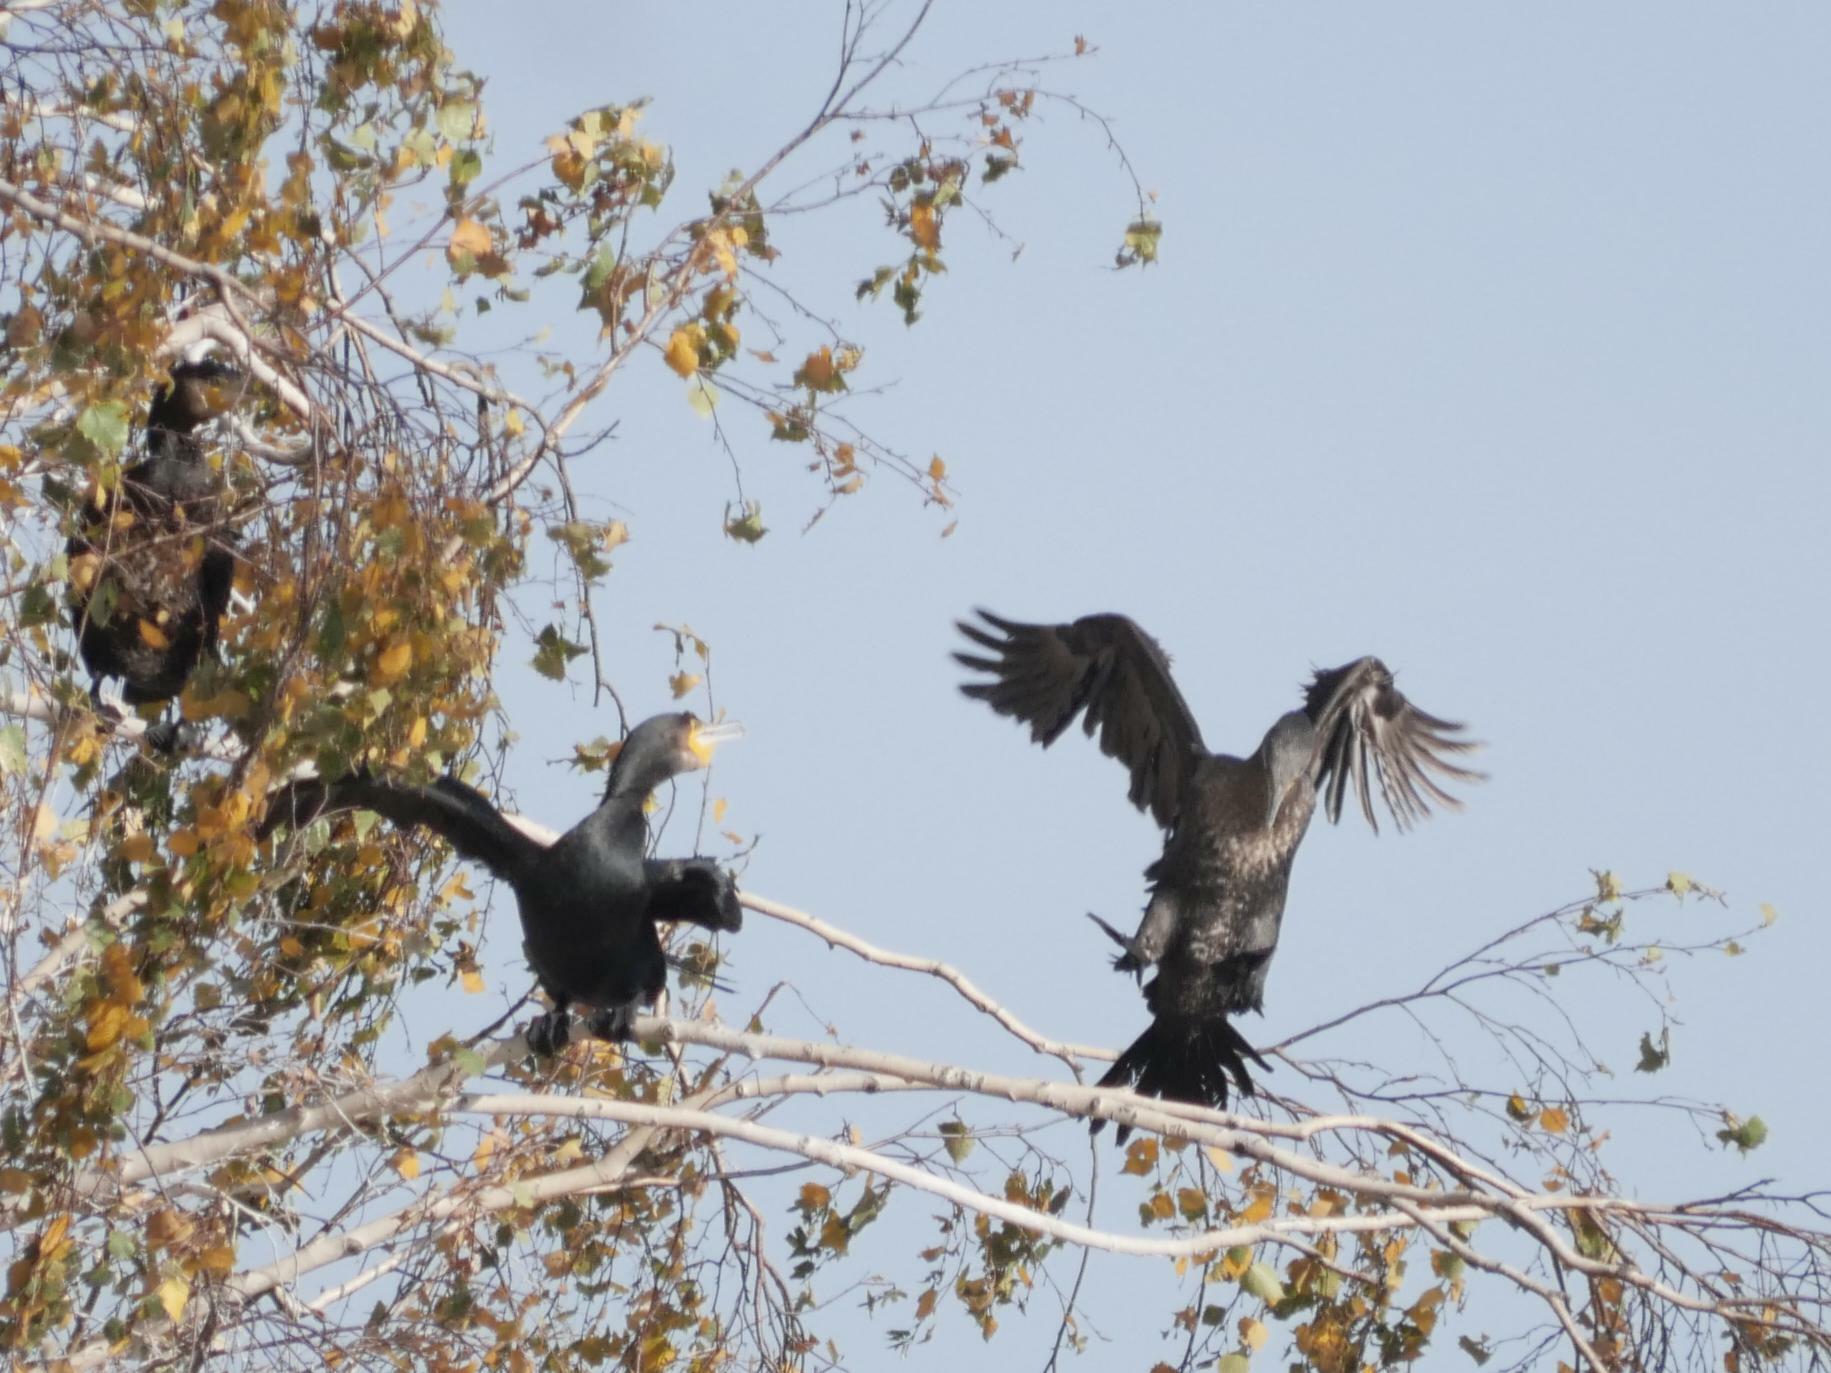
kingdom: Animalia
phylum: Chordata
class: Aves
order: Suliformes
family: Phalacrocoracidae
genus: Phalacrocorax
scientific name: Phalacrocorax carbo
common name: Great cormorant
